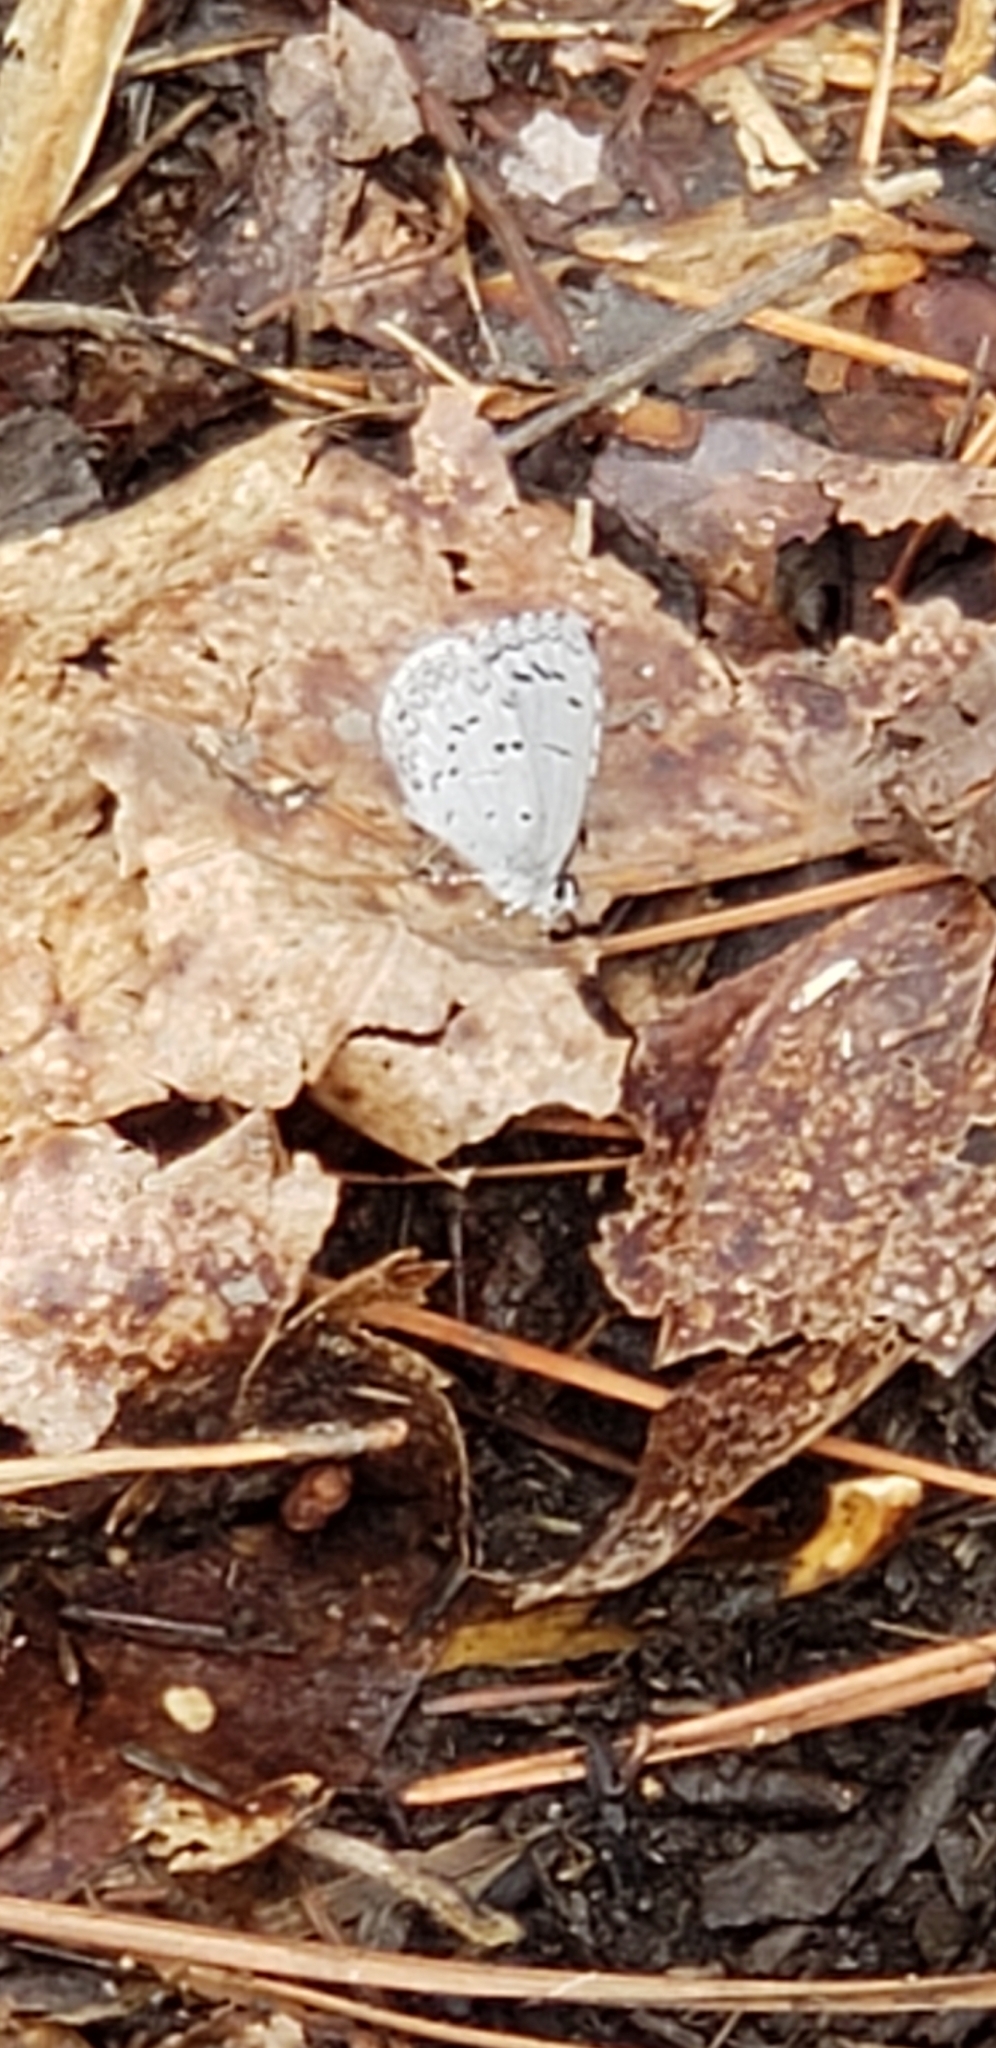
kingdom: Animalia
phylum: Arthropoda
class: Insecta
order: Lepidoptera
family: Lycaenidae
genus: Cyaniris
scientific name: Cyaniris neglecta
